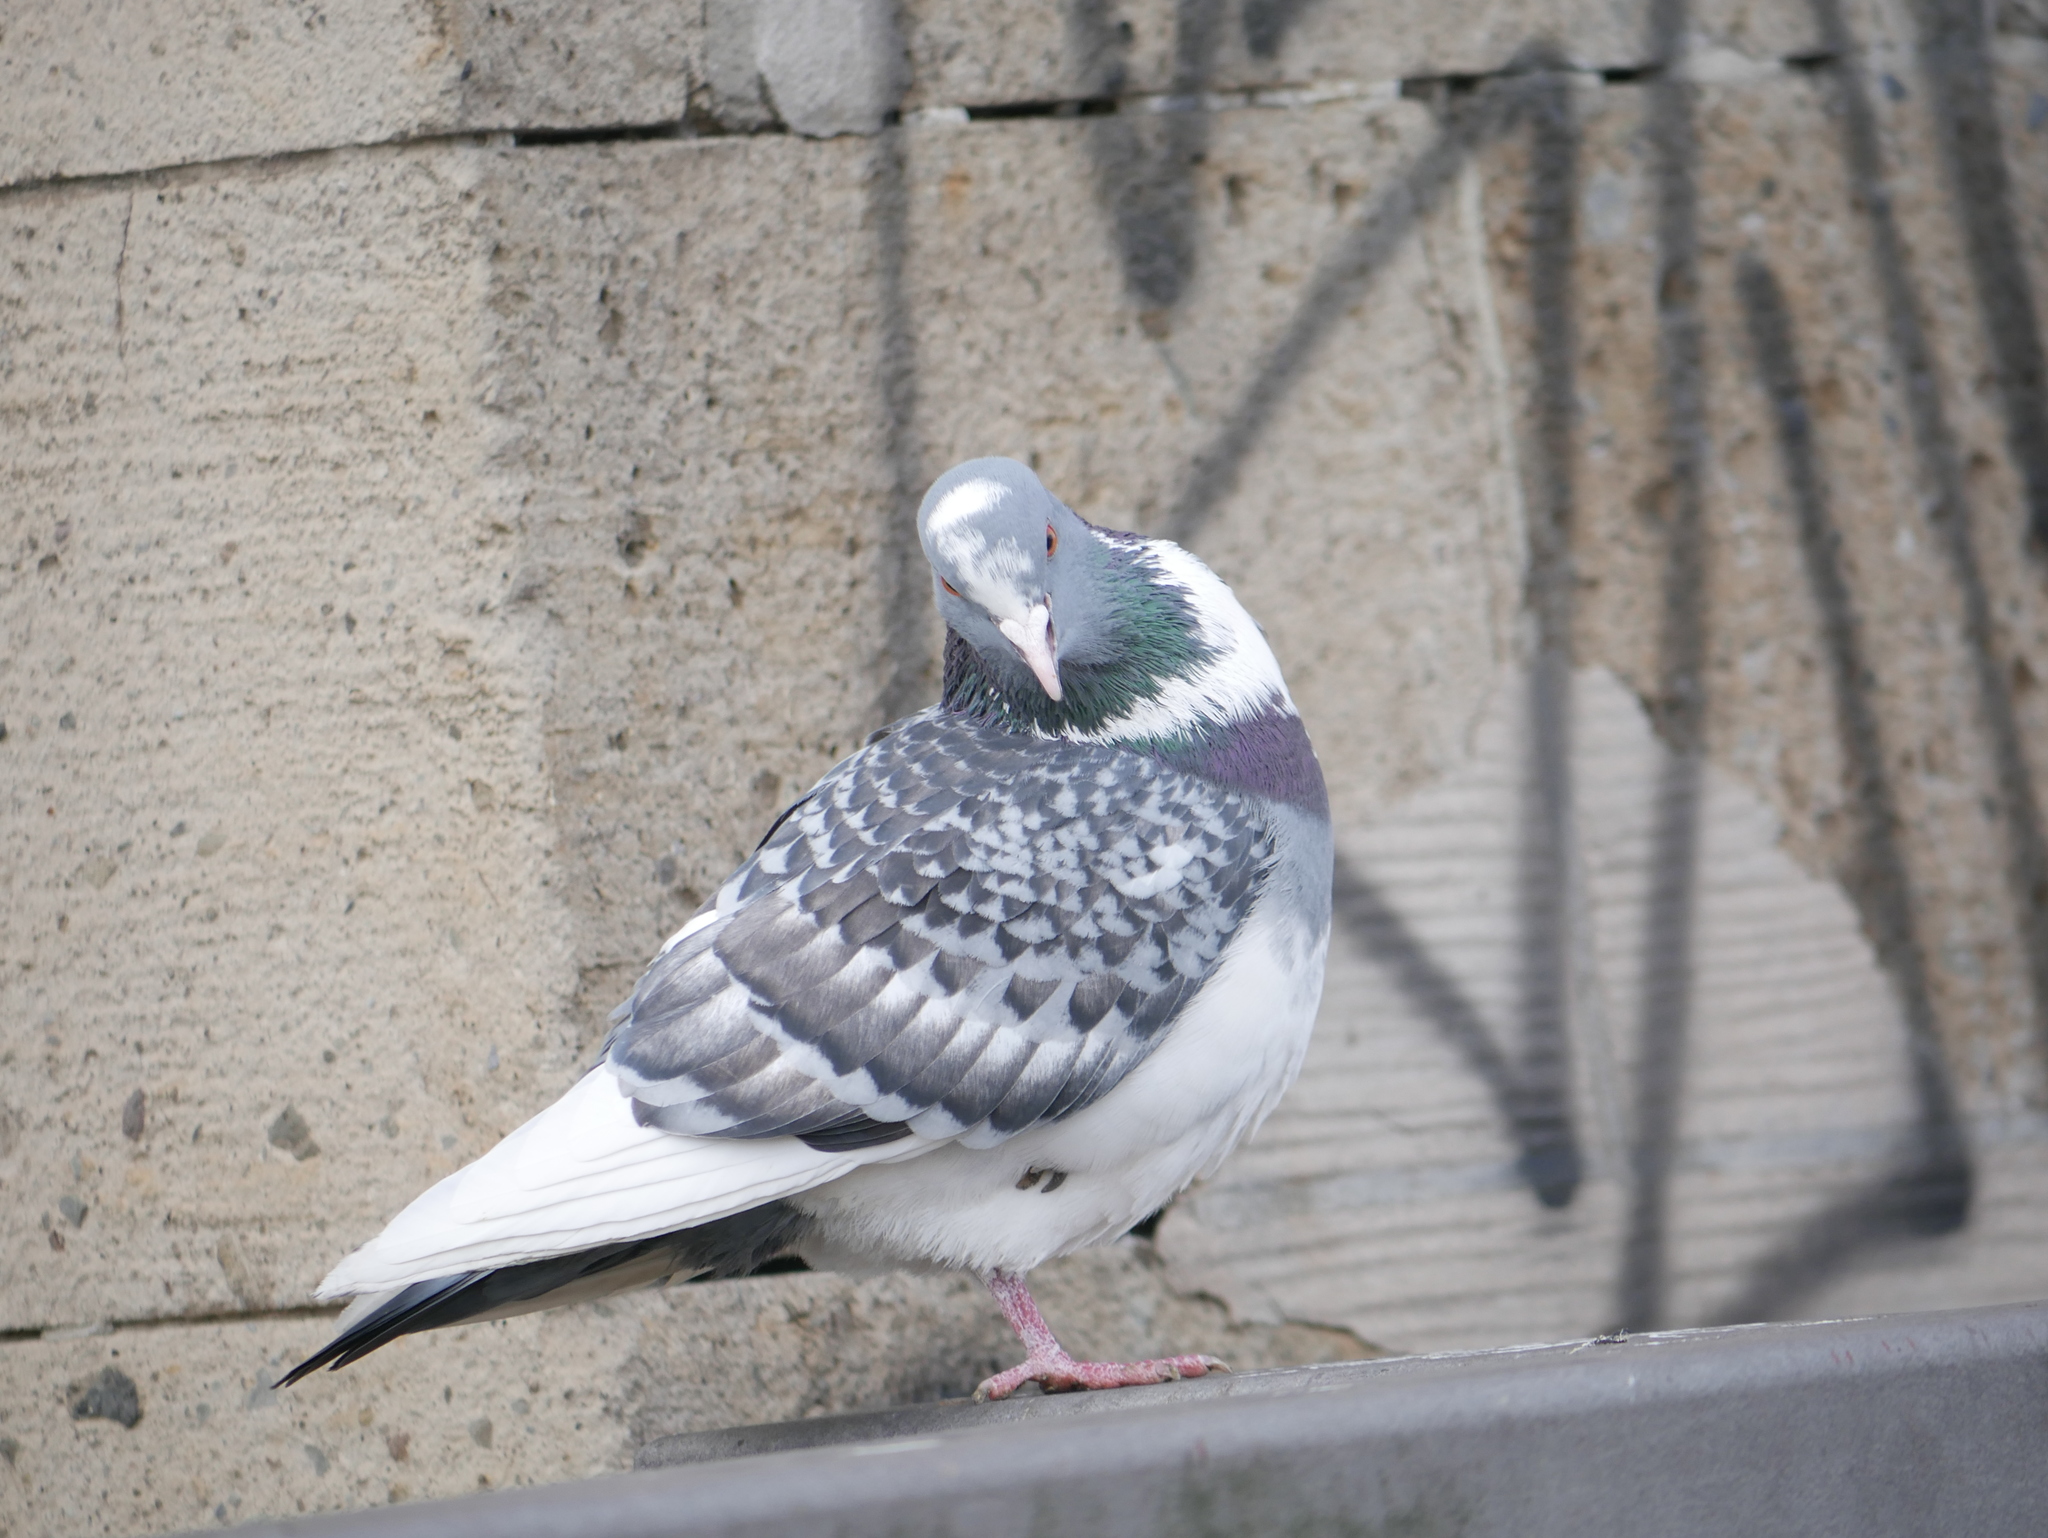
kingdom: Animalia
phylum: Chordata
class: Aves
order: Columbiformes
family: Columbidae
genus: Columba
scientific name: Columba livia
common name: Rock pigeon
